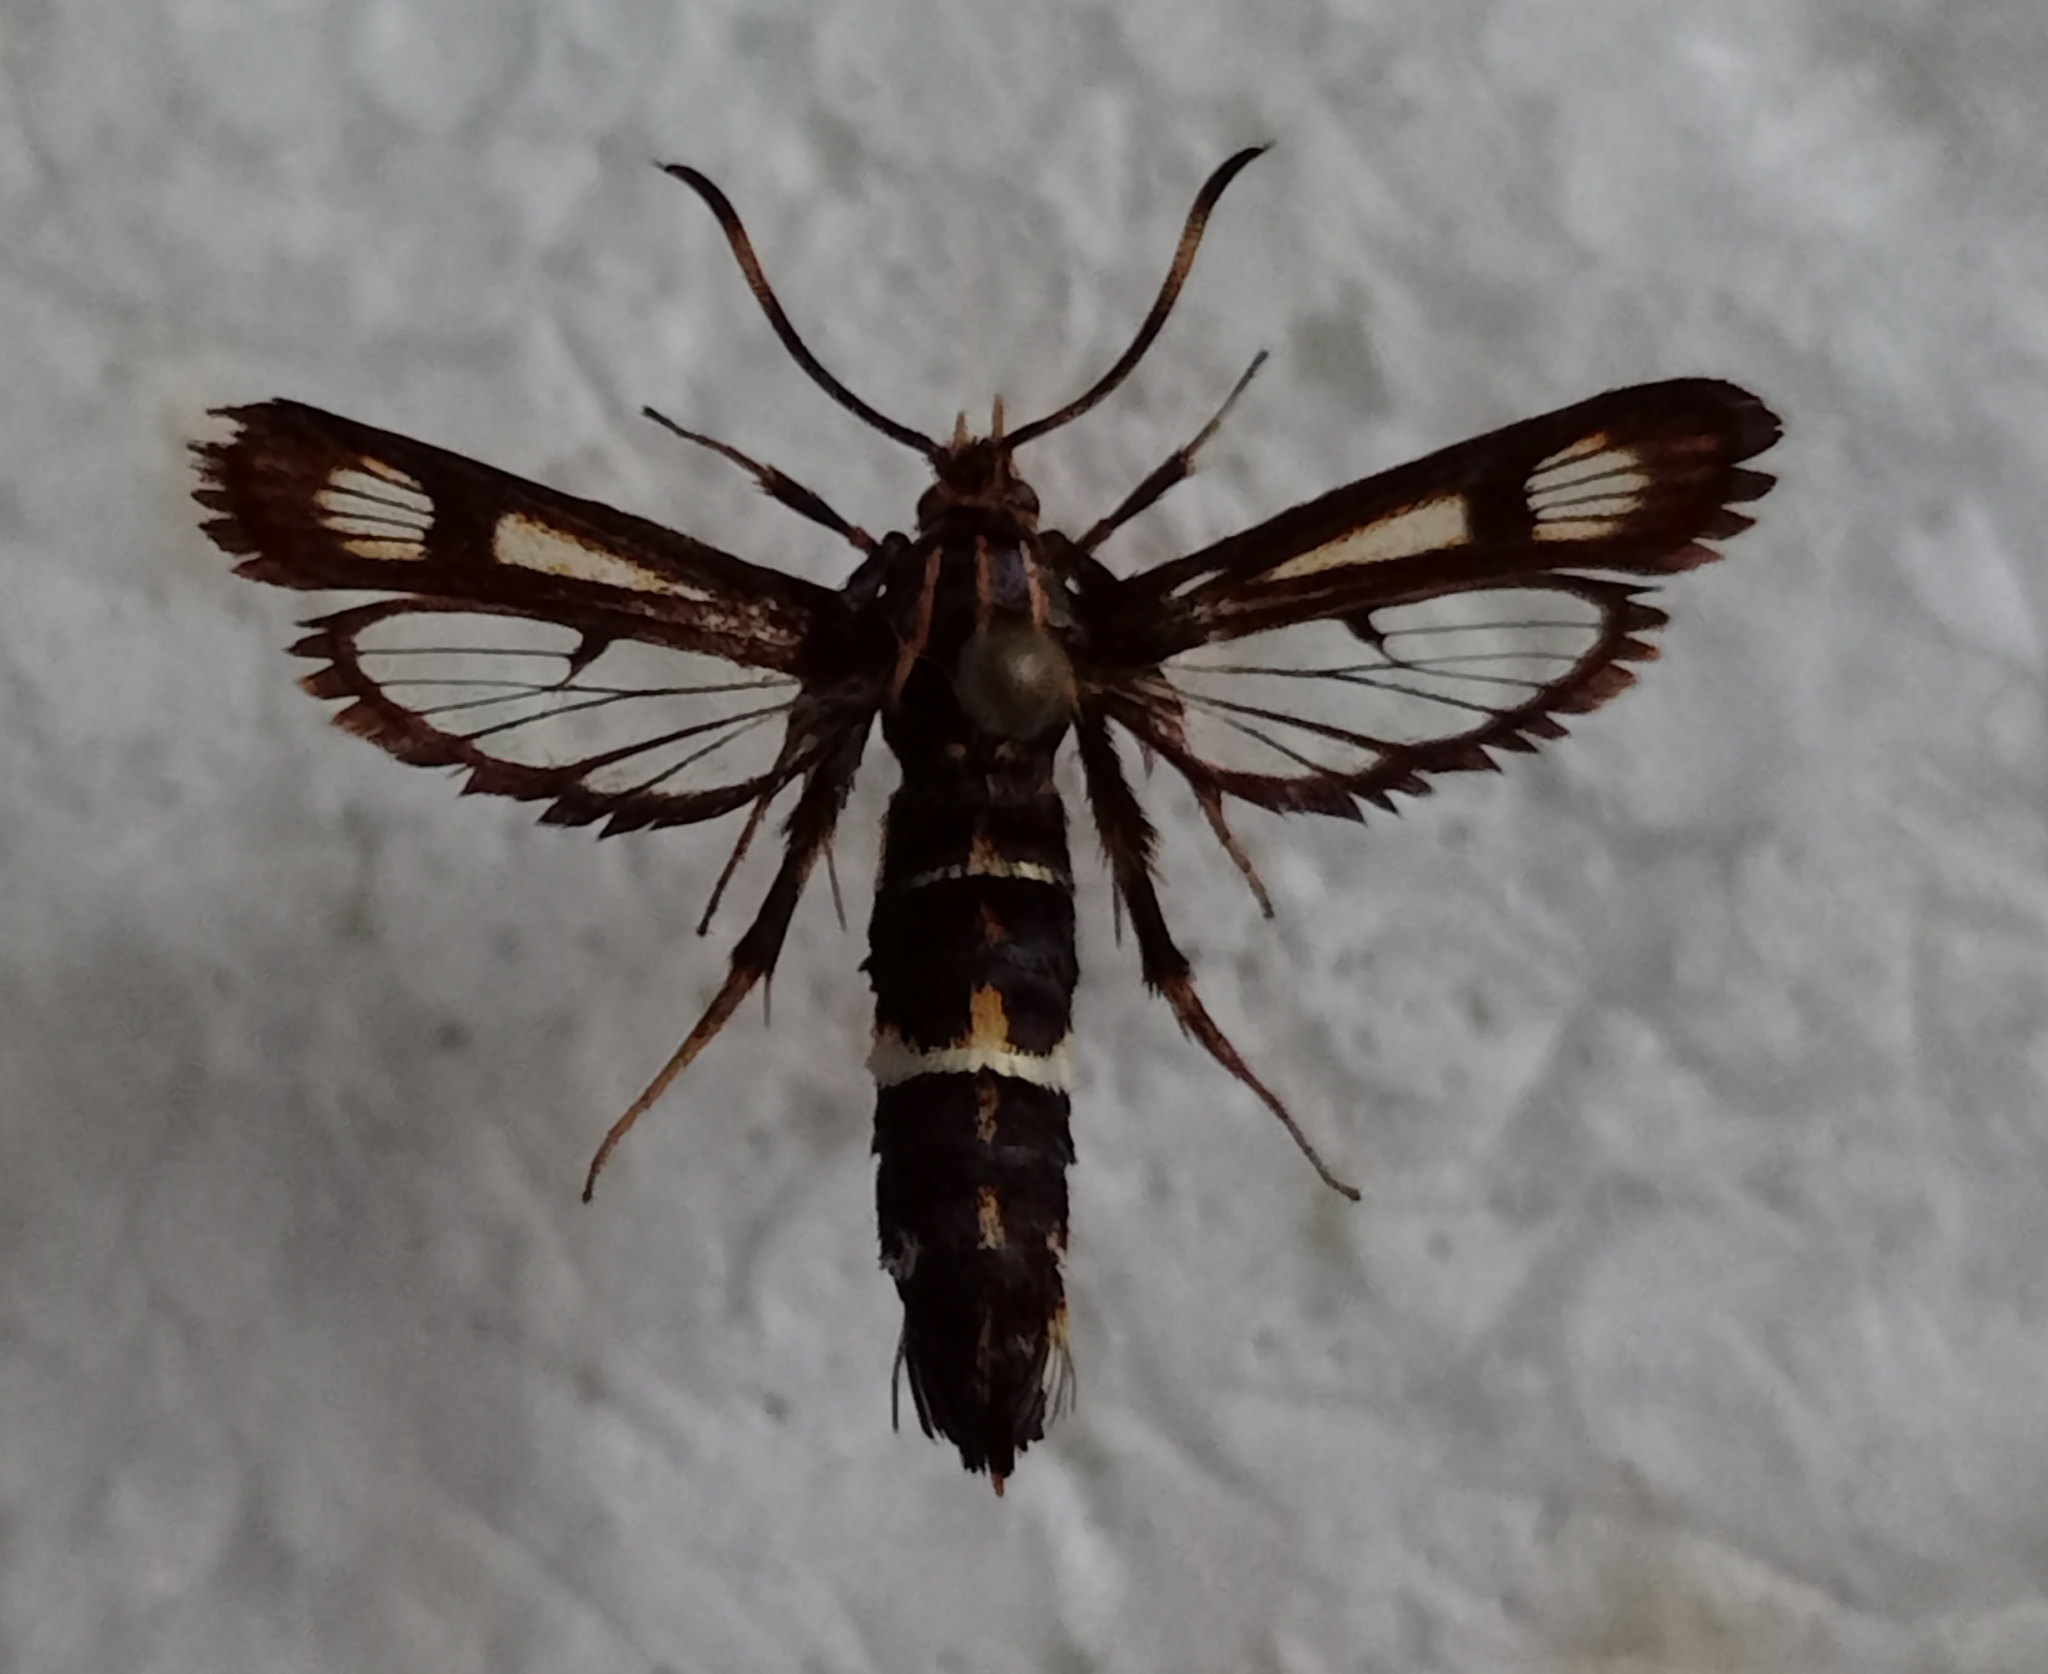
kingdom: Animalia
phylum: Arthropoda
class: Insecta
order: Lepidoptera
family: Sesiidae
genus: Chamaesphecia
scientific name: Chamaesphecia euceraeformis
